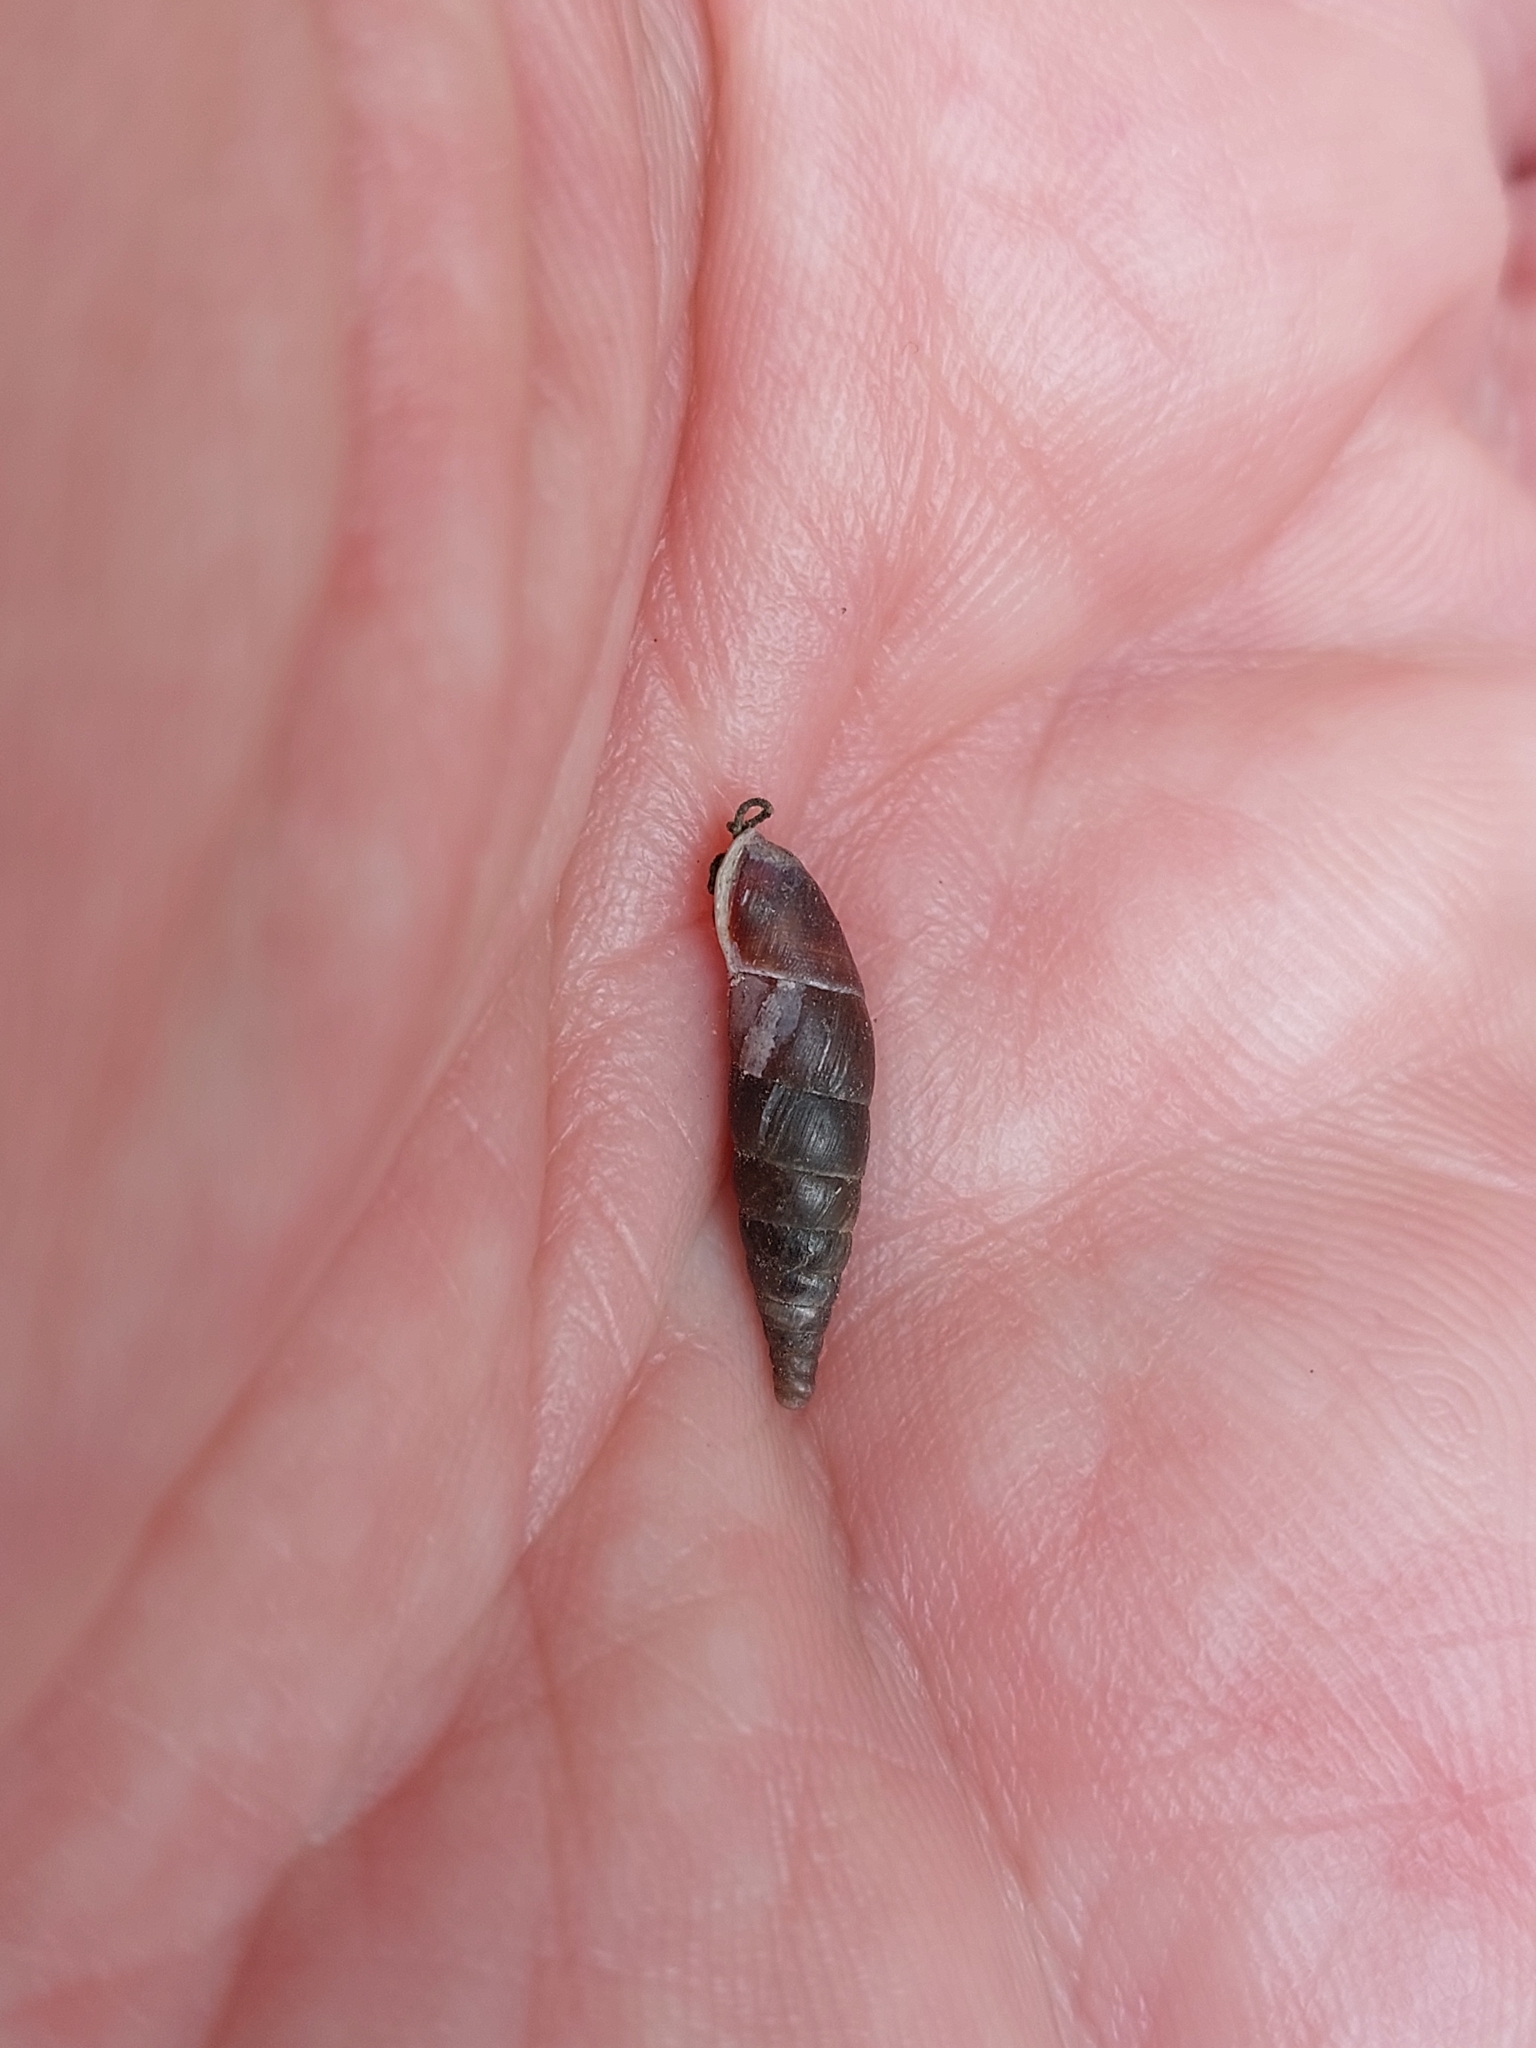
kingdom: Animalia
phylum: Mollusca
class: Gastropoda
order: Stylommatophora
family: Clausiliidae
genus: Cochlodina
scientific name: Cochlodina laminata
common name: Plaited door snail
